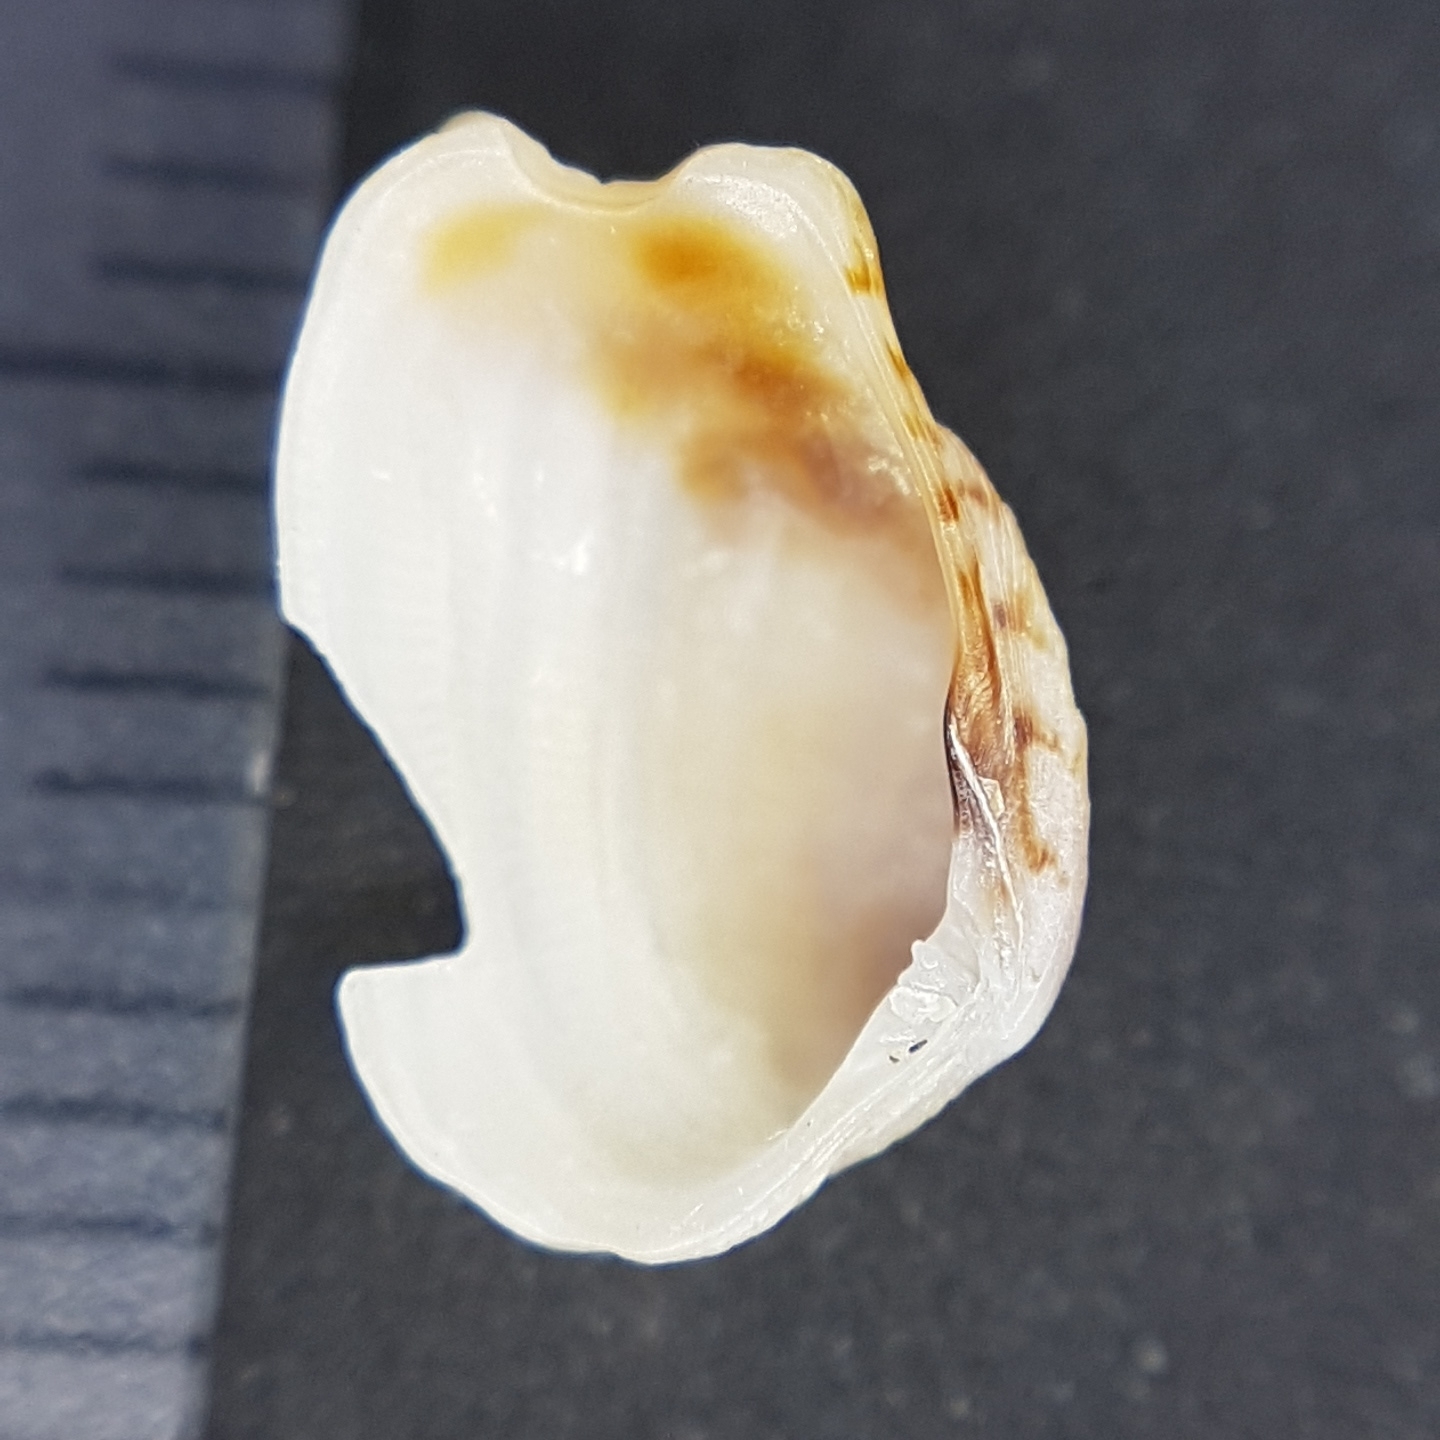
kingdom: Animalia
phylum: Mollusca
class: Bivalvia
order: Venerida
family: Veneridae
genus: Irus
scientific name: Irus irus
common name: Irus clam
